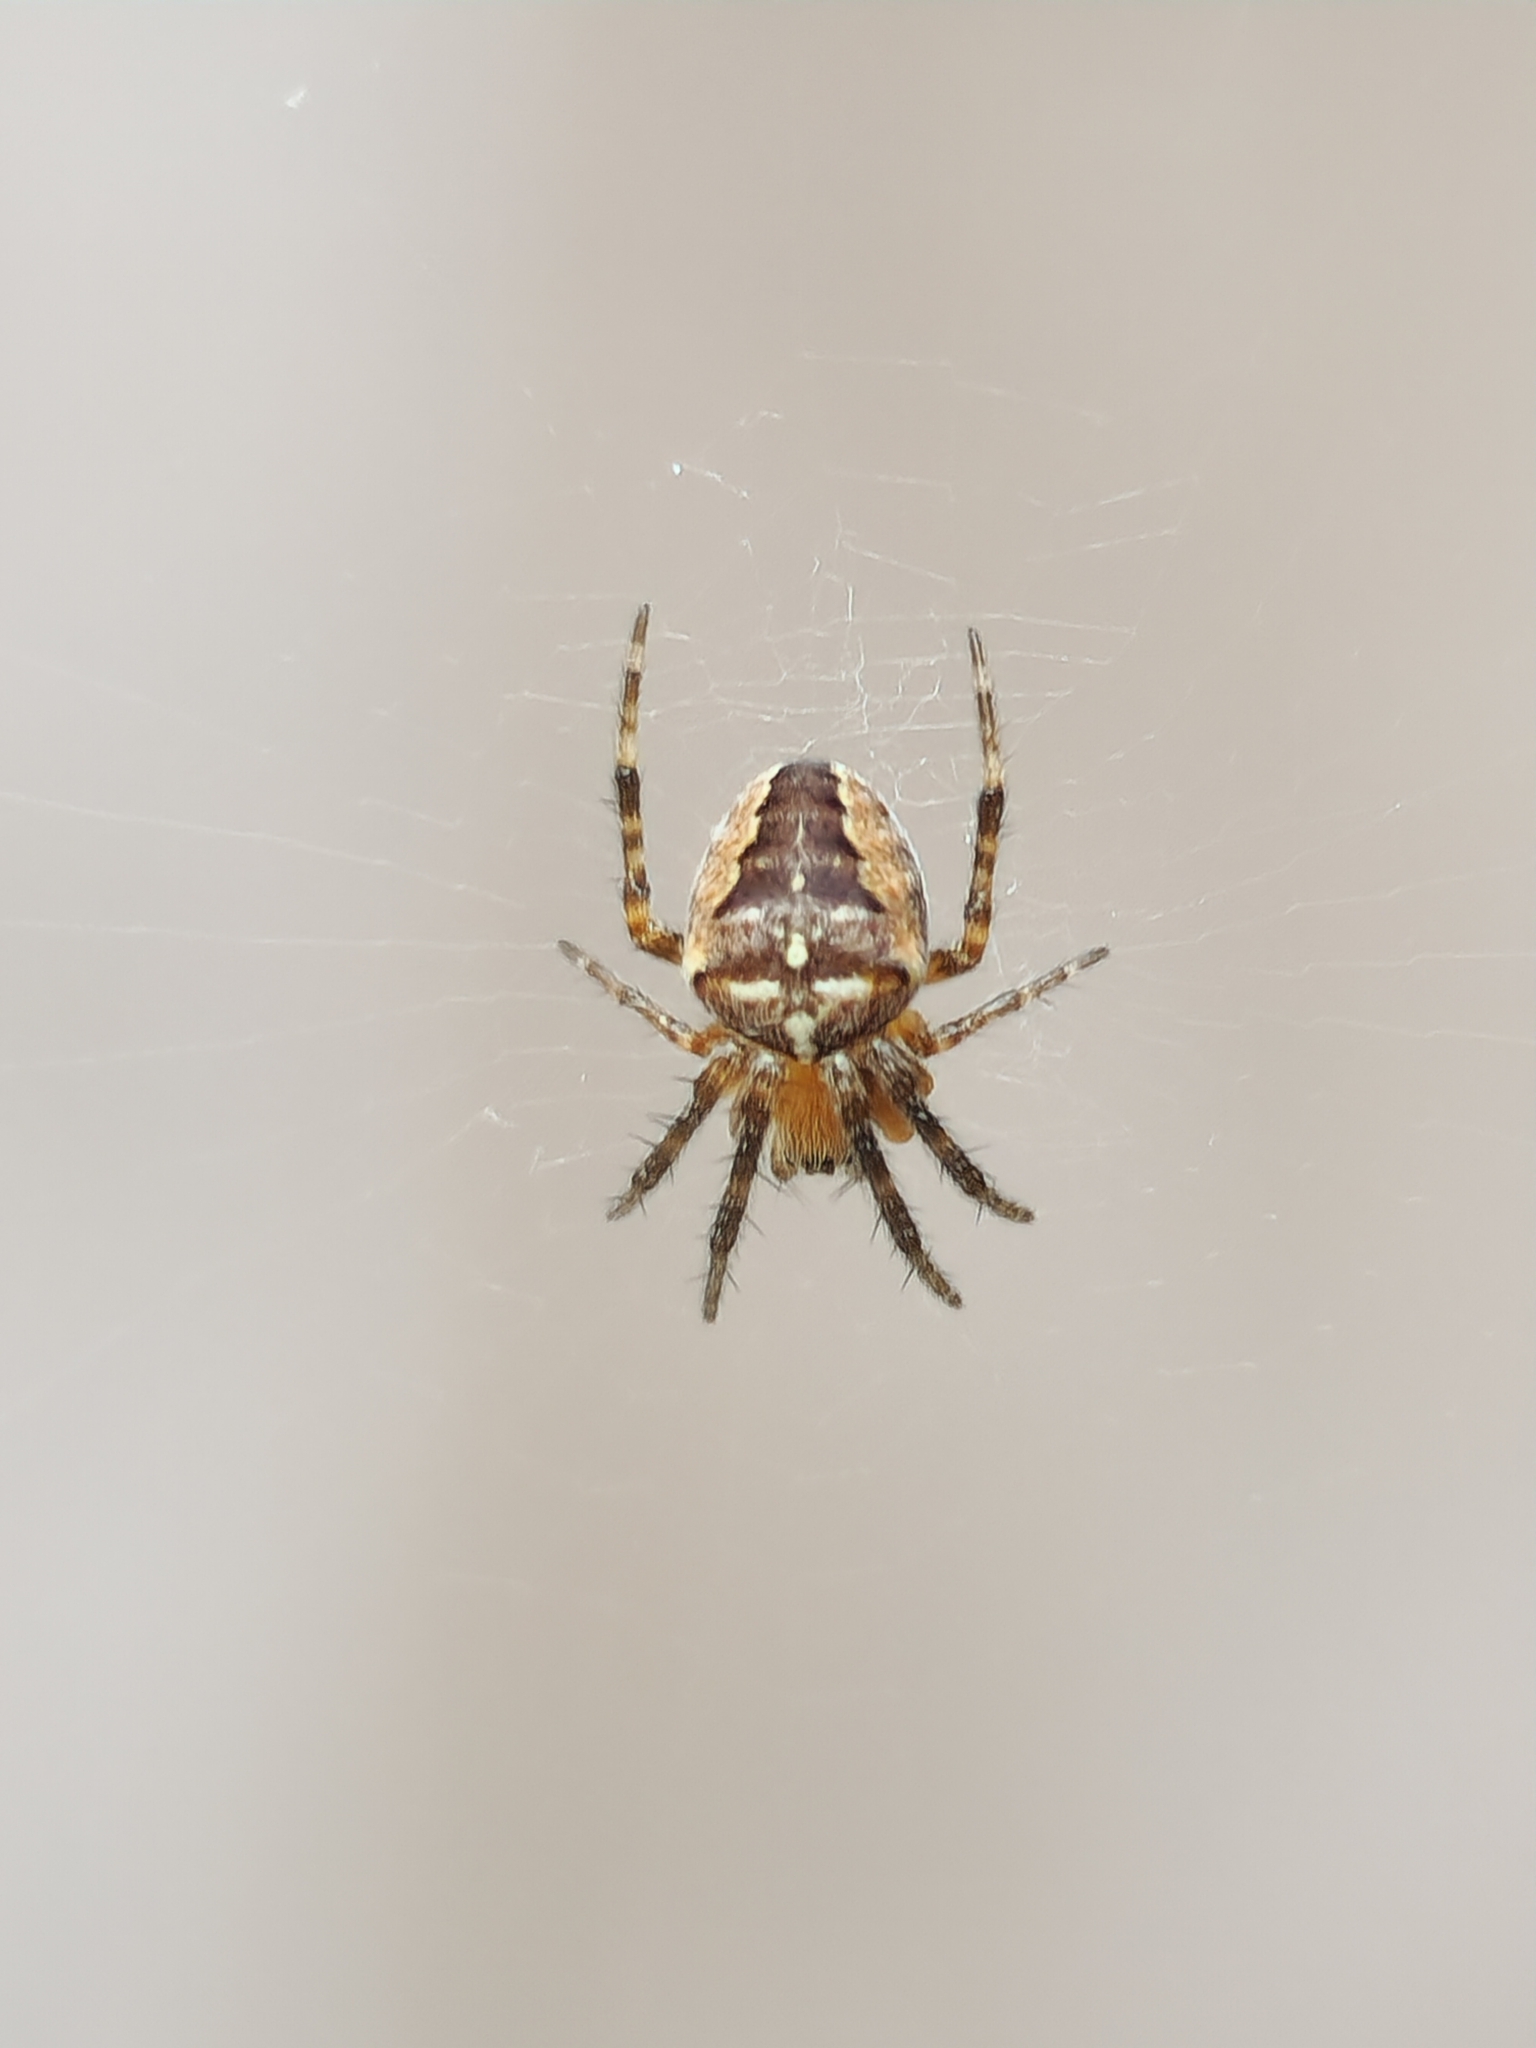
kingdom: Animalia
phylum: Arthropoda
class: Arachnida
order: Araneae
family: Araneidae
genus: Araneus
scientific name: Araneus diadematus
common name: Cross orbweaver
